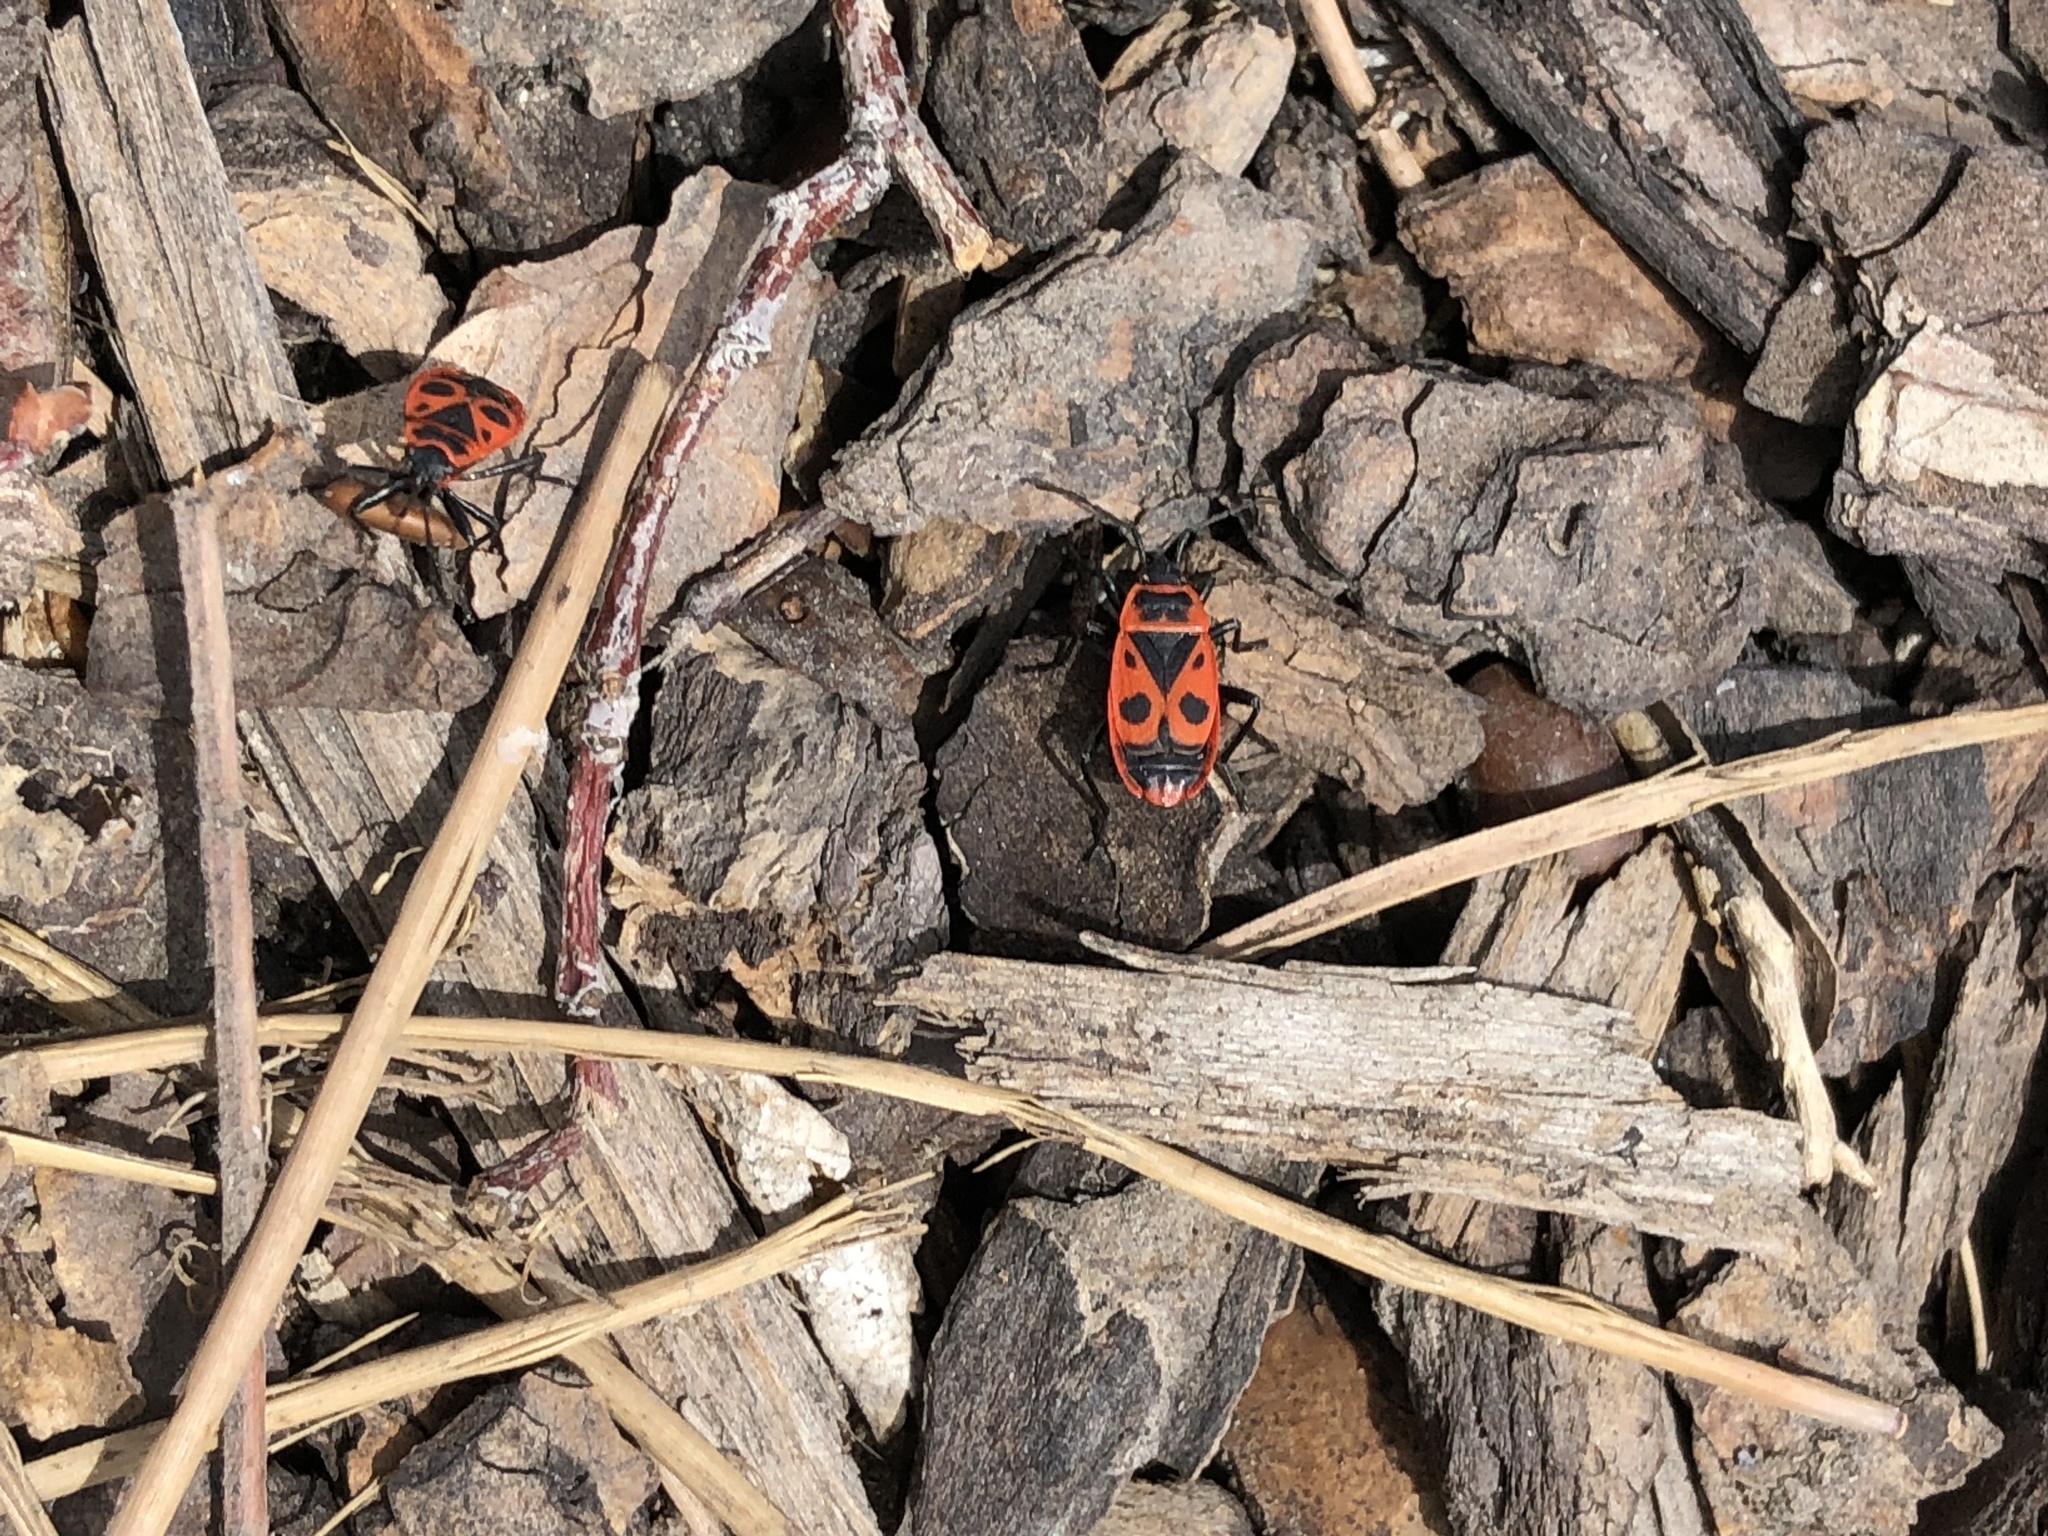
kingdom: Animalia
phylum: Arthropoda
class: Insecta
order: Hemiptera
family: Pyrrhocoridae
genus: Pyrrhocoris
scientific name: Pyrrhocoris apterus
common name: Firebug
